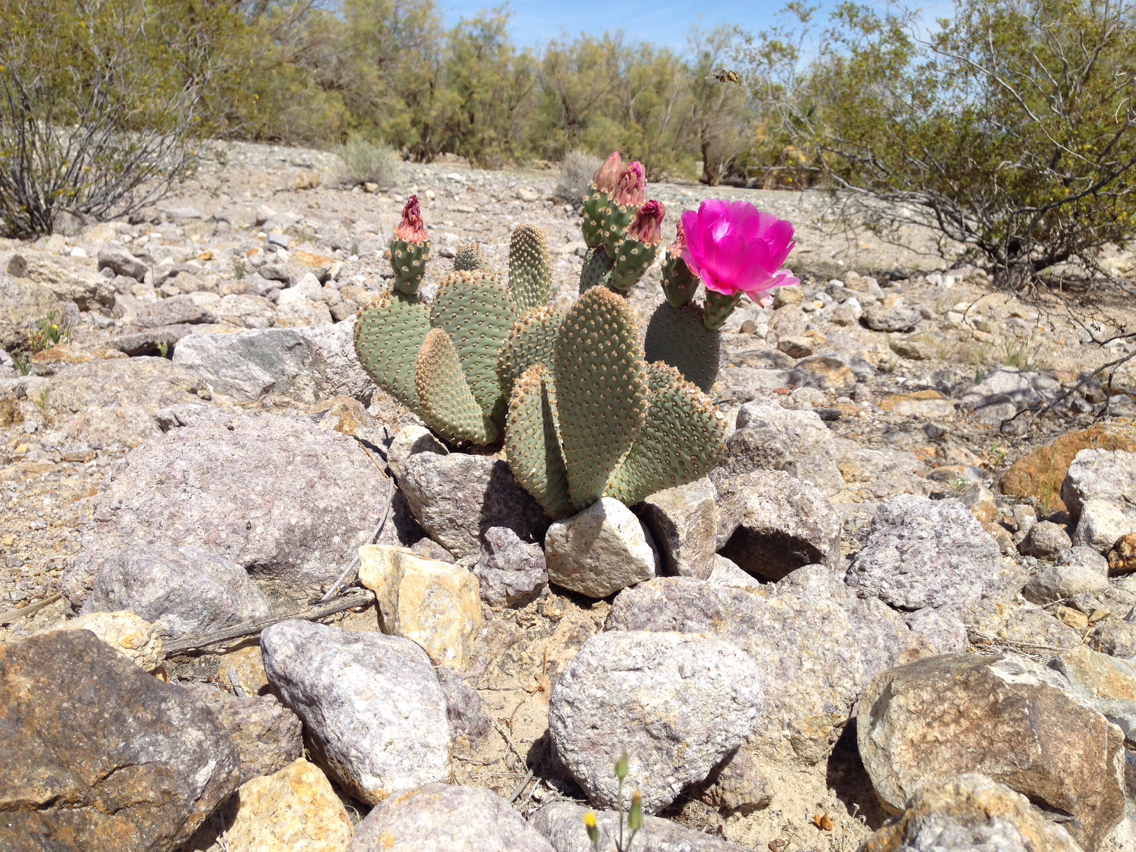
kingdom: Plantae
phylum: Tracheophyta
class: Magnoliopsida
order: Caryophyllales
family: Cactaceae
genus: Opuntia
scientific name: Opuntia basilaris
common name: Beavertail prickly-pear
